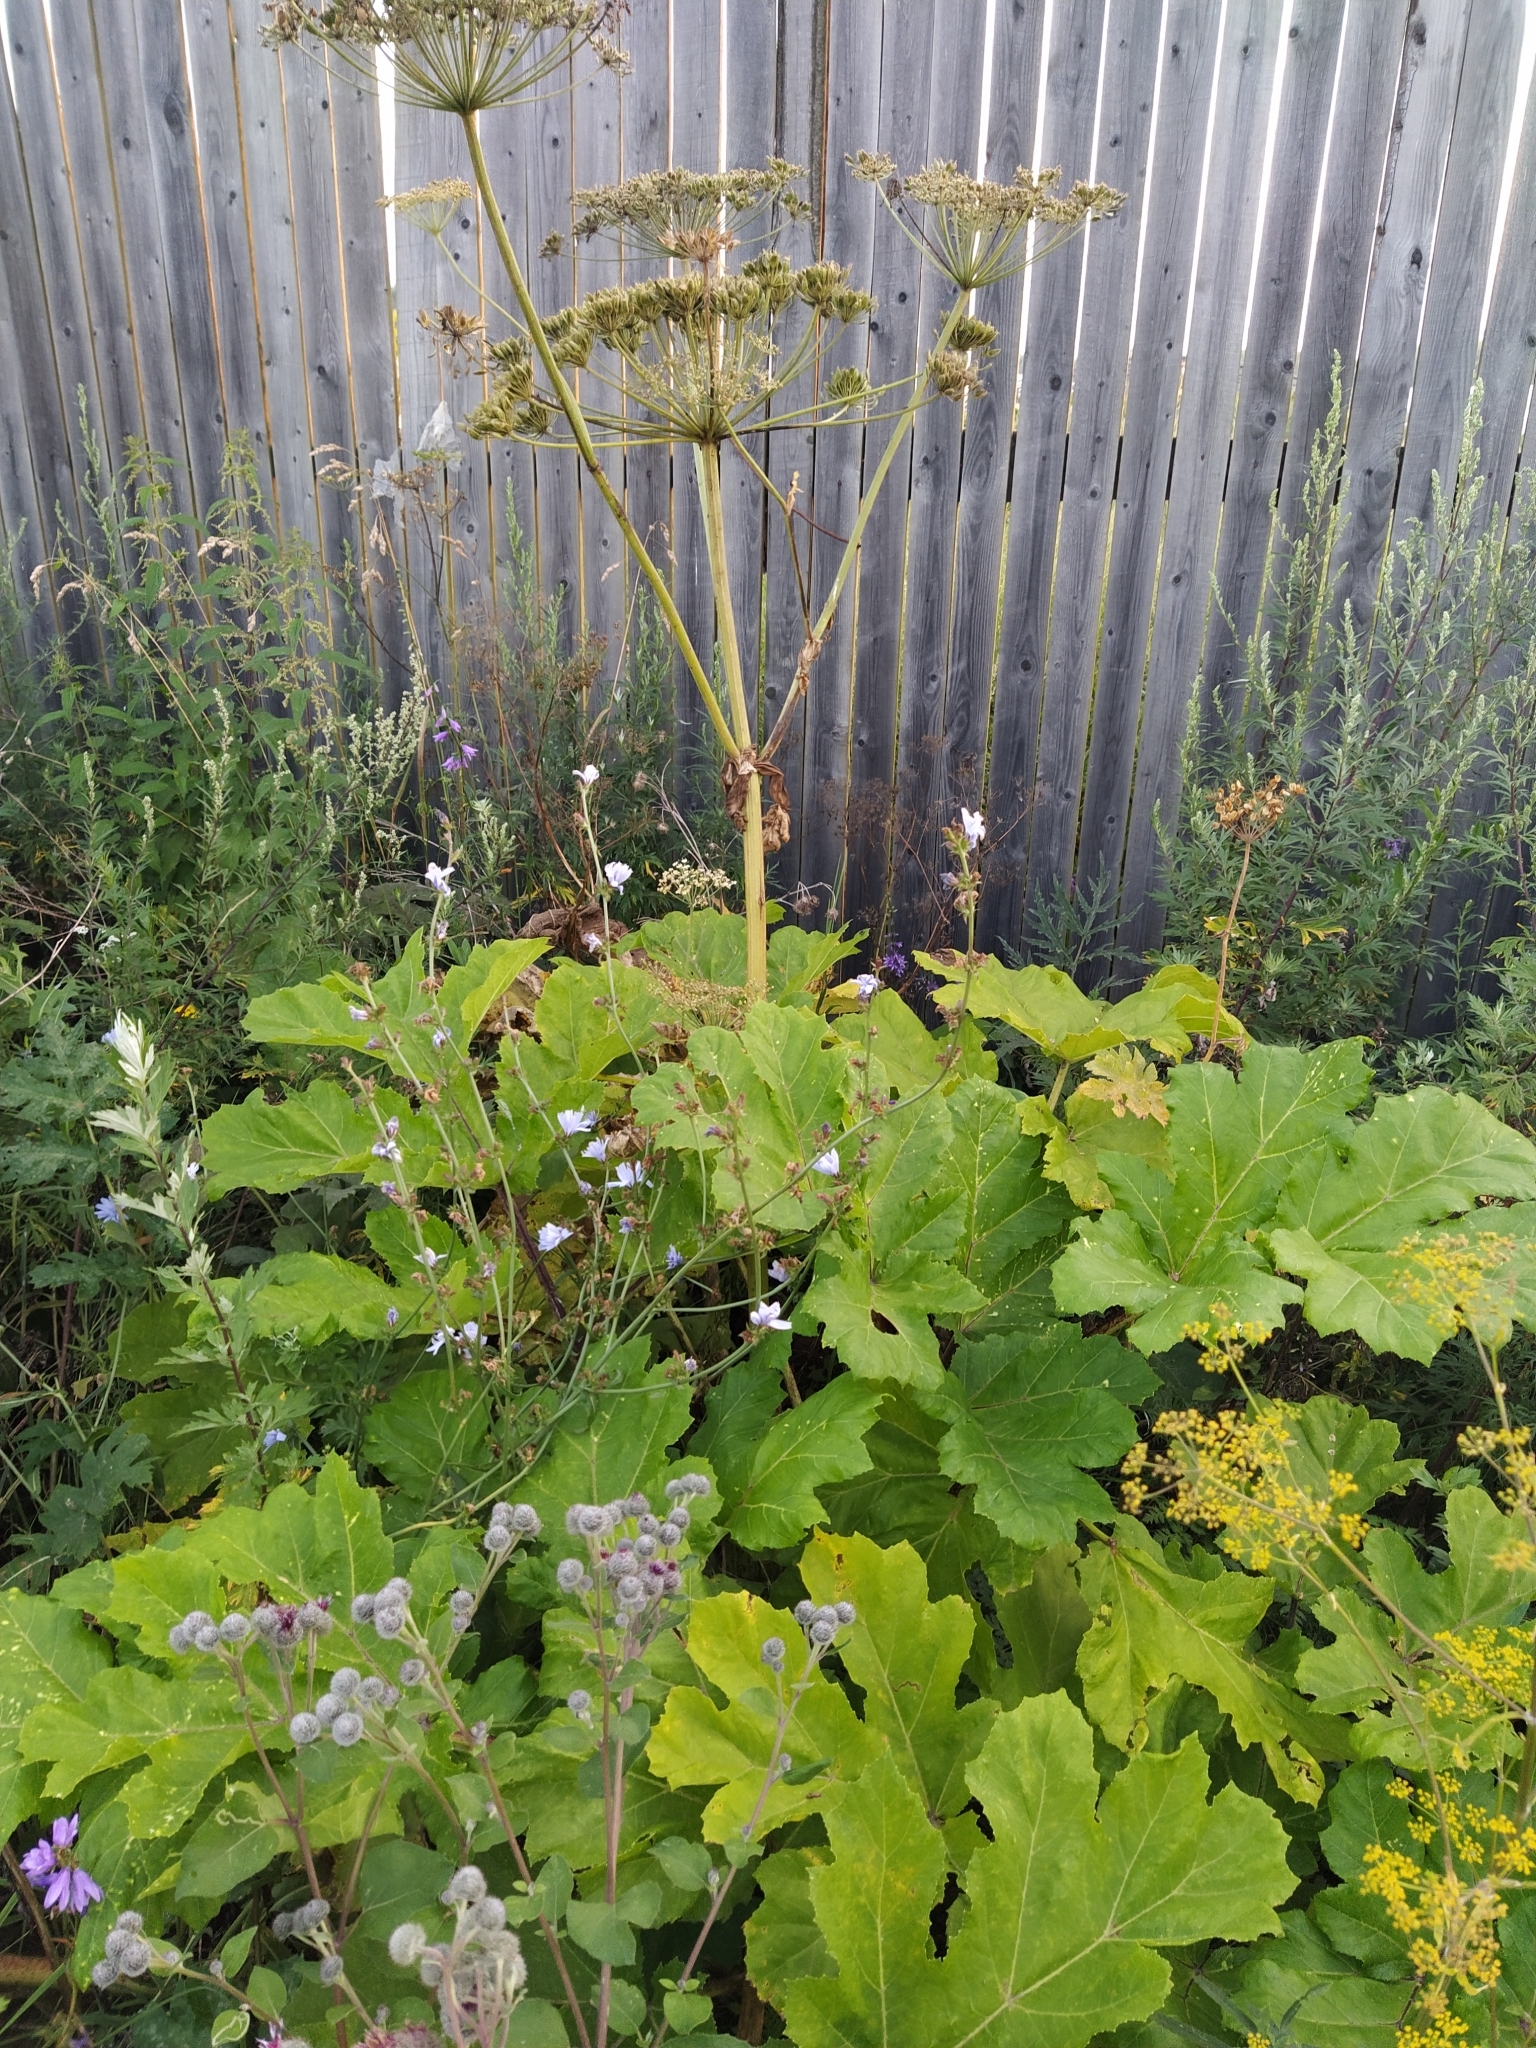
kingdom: Plantae
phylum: Tracheophyta
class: Magnoliopsida
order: Apiales
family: Apiaceae
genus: Heracleum
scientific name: Heracleum sosnowskyi
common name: Sosnowsky's hogweed
